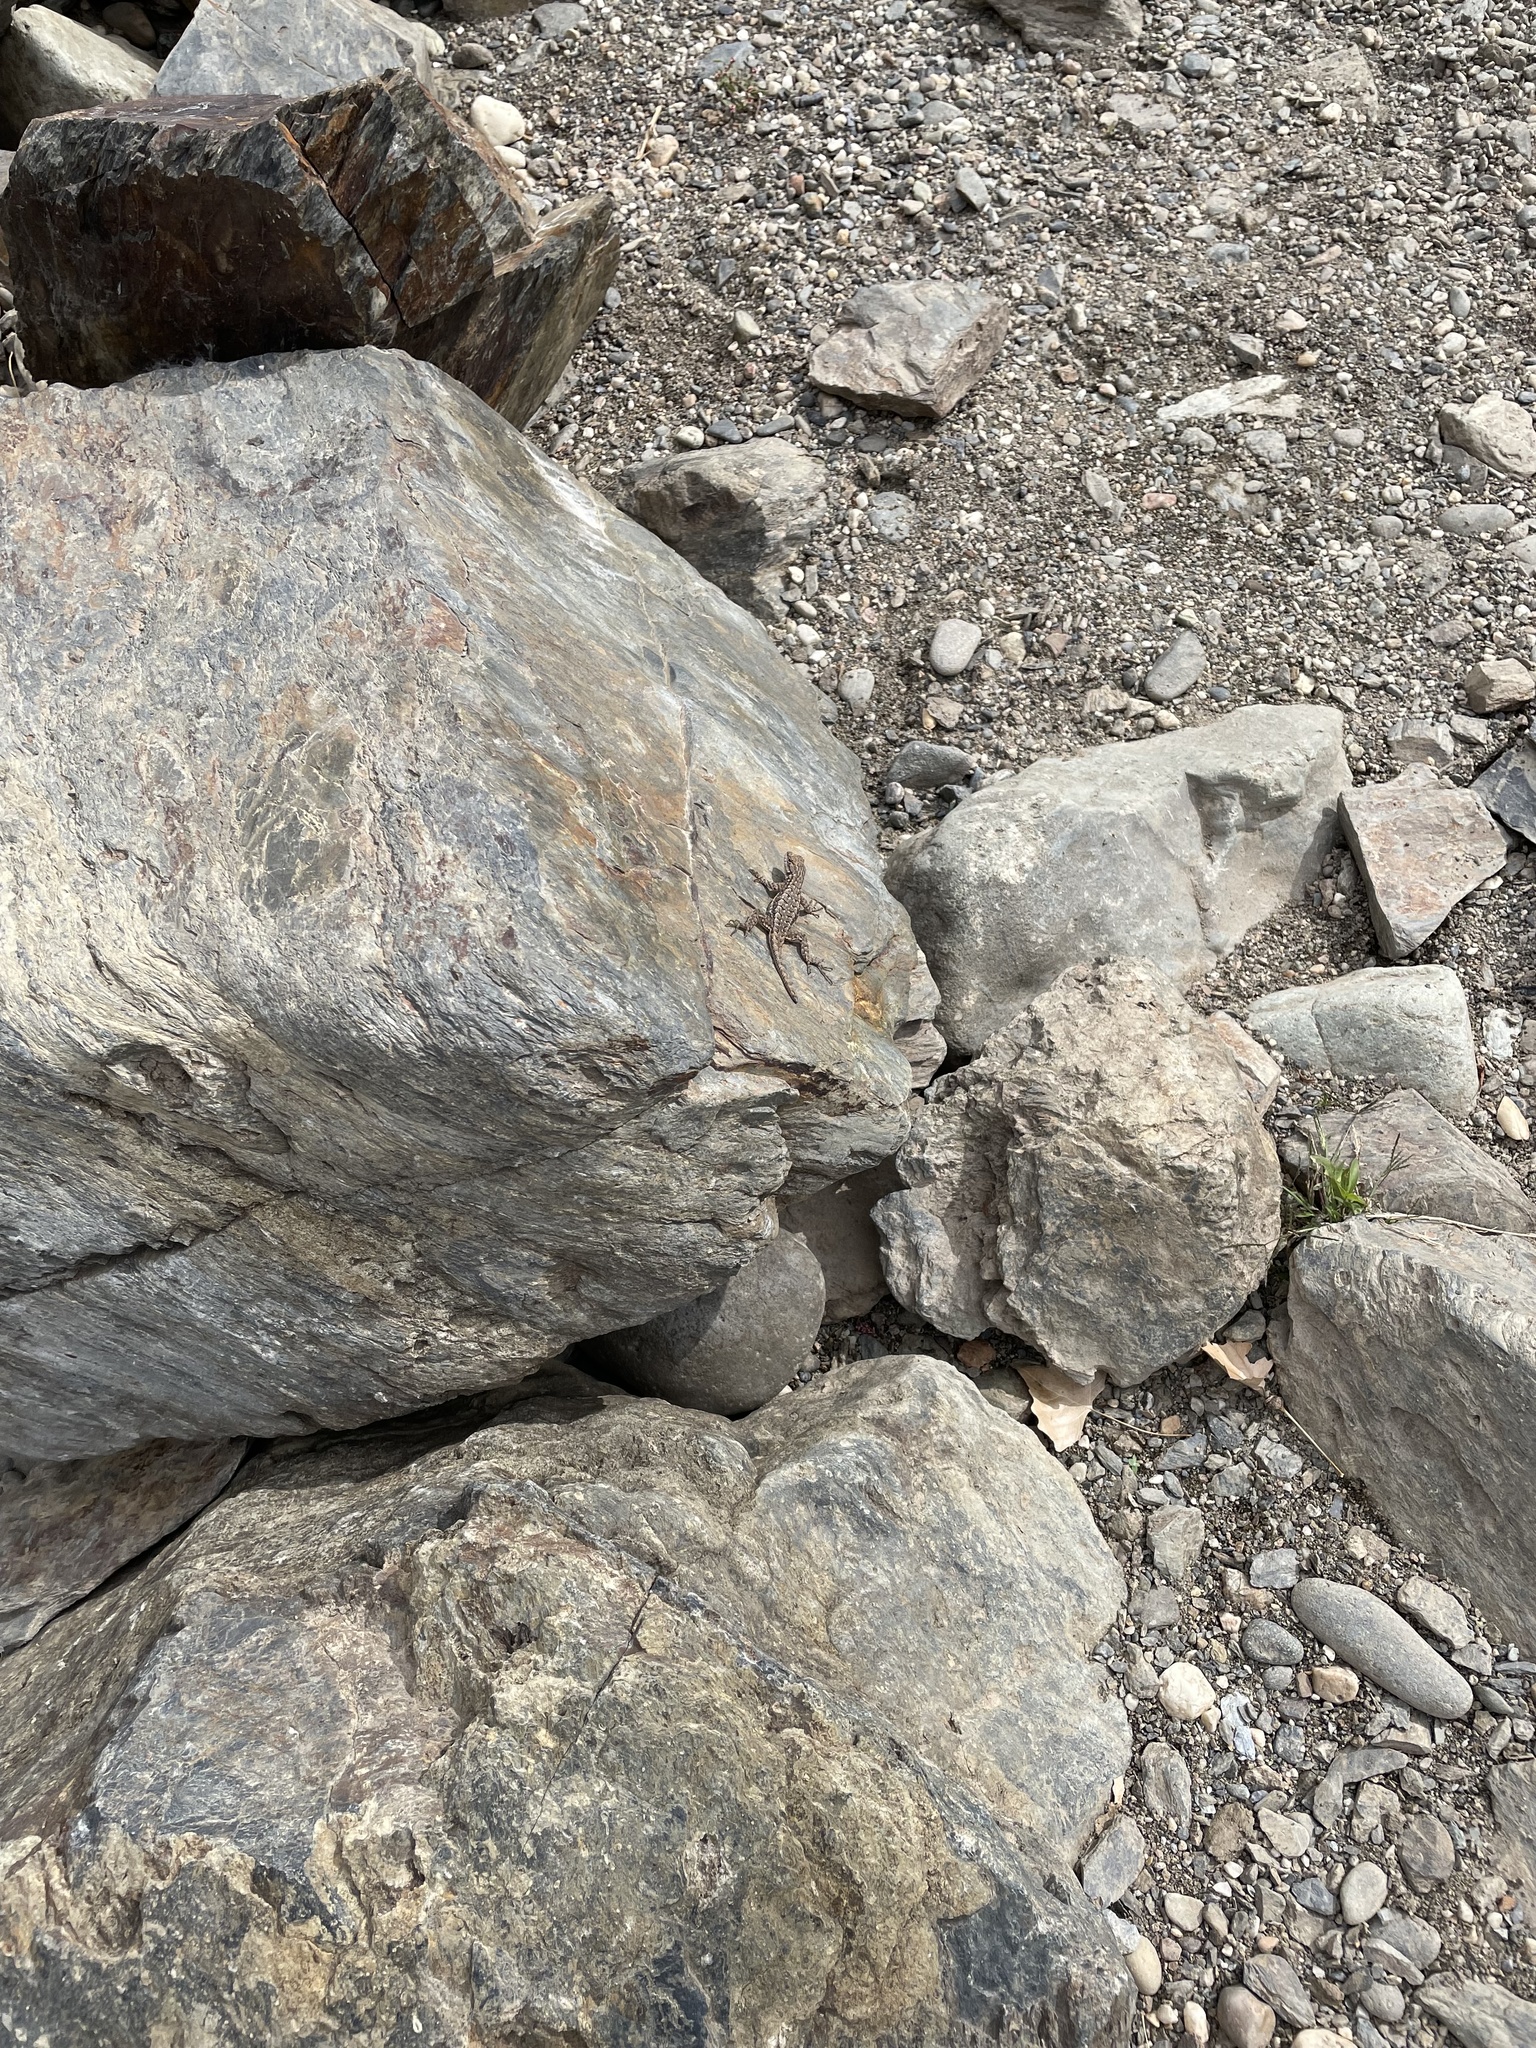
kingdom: Animalia
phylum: Chordata
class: Squamata
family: Phrynosomatidae
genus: Sceloporus
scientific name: Sceloporus occidentalis
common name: Western fence lizard
